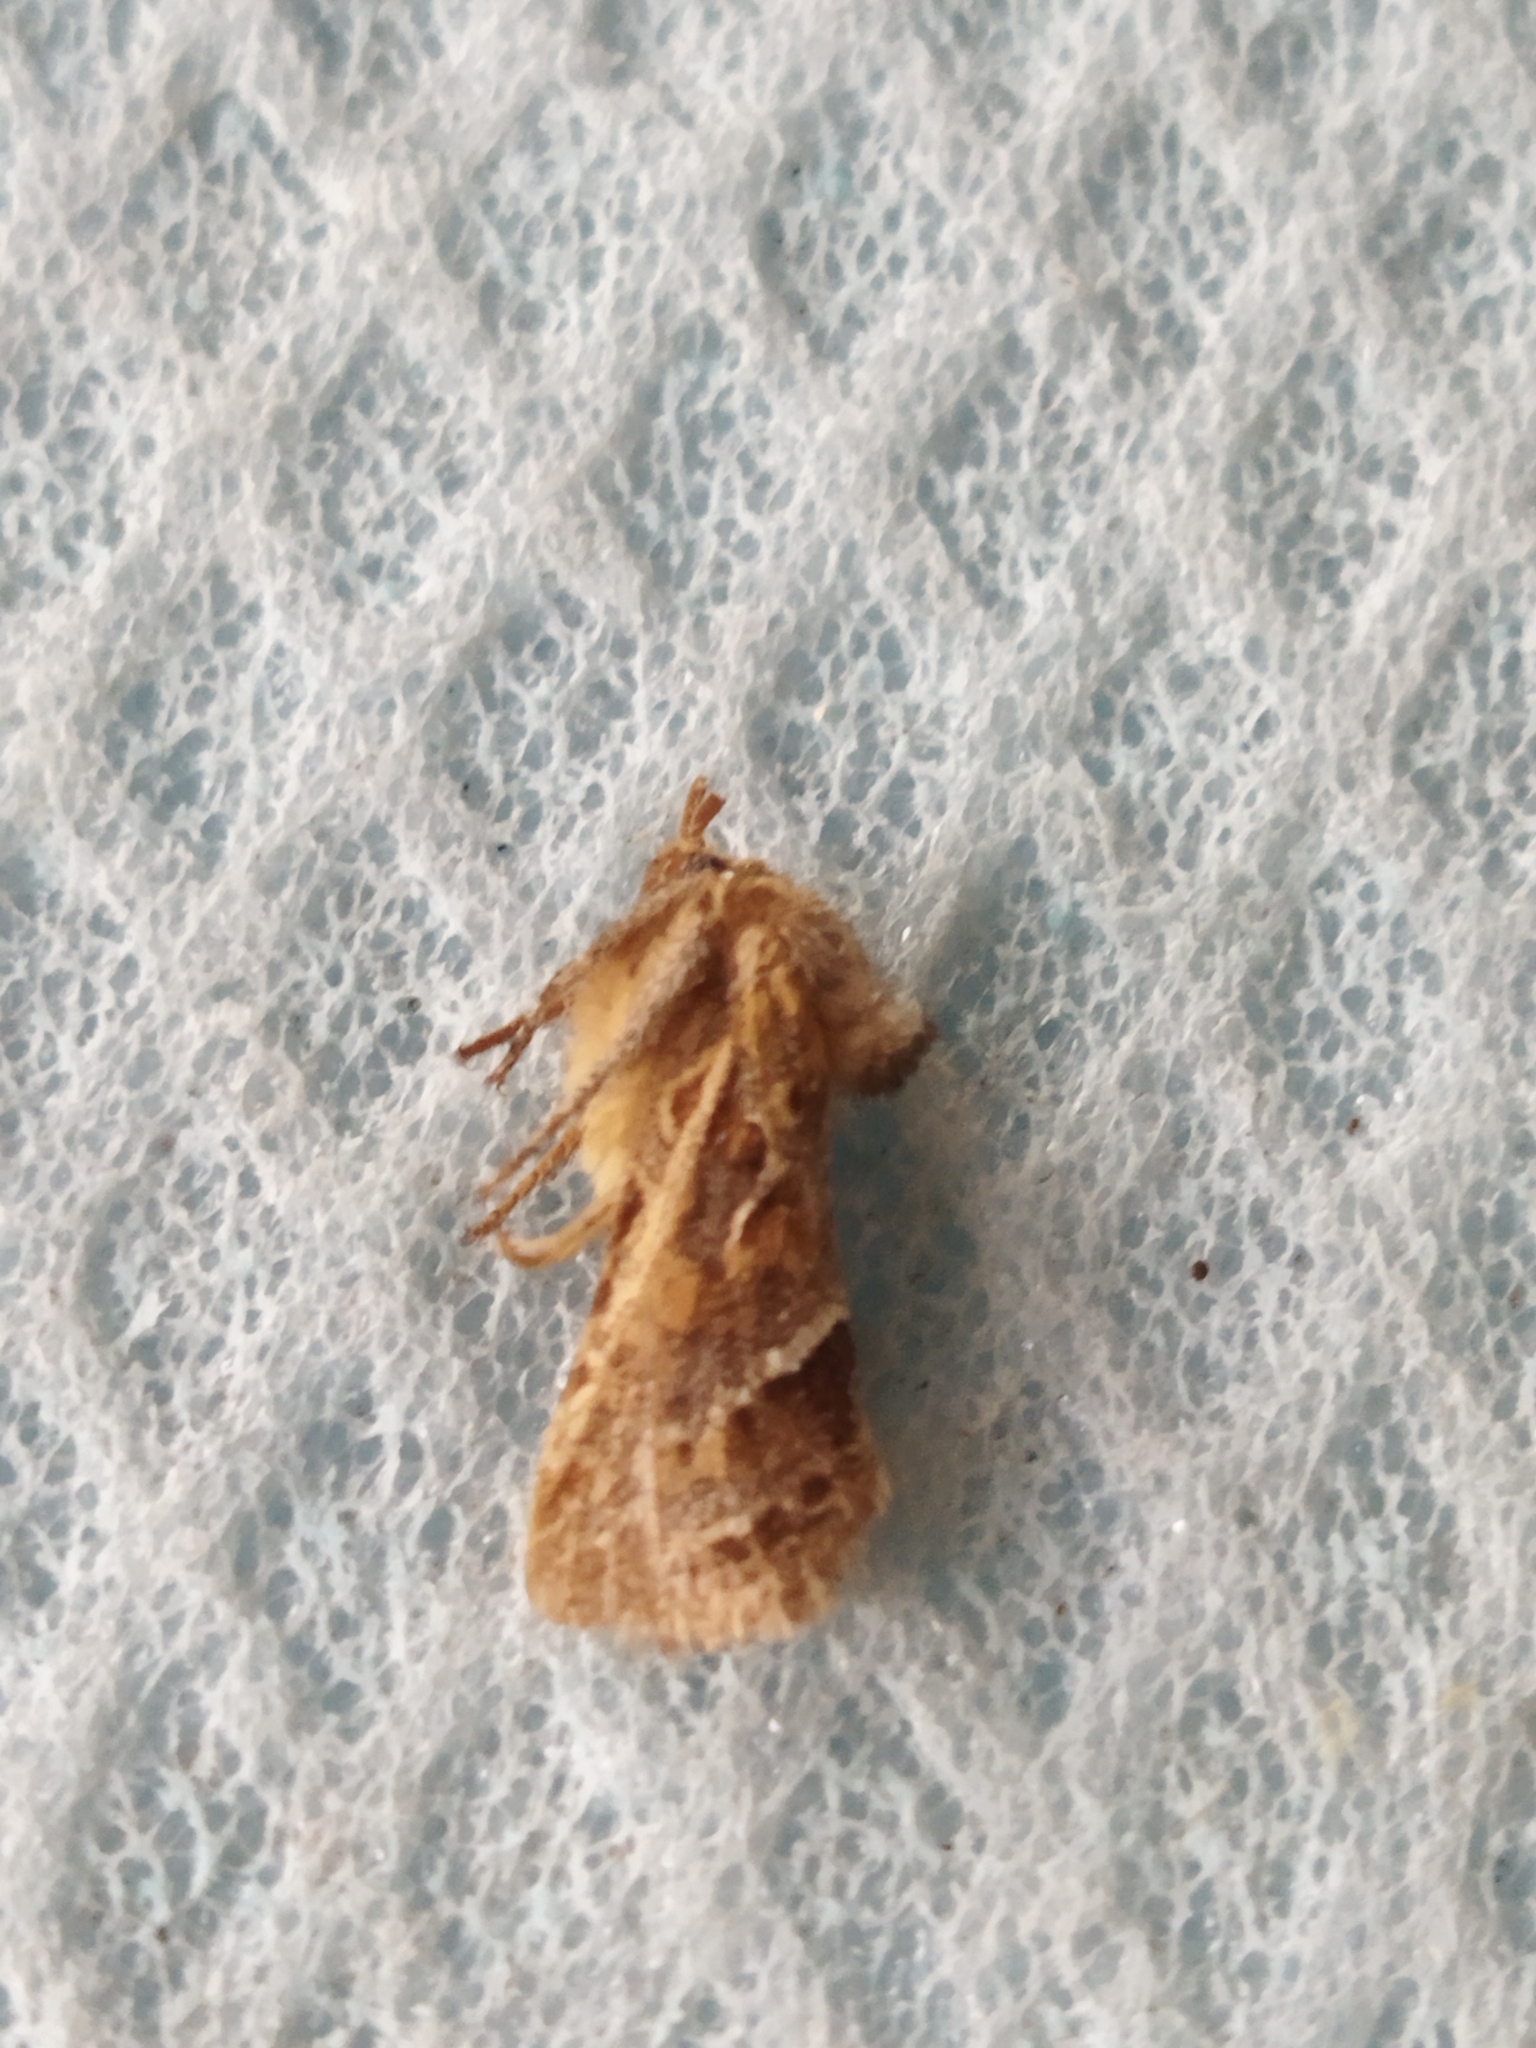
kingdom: Animalia
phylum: Arthropoda
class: Insecta
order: Lepidoptera
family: Hepialidae
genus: Triodia
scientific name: Triodia amasinus
